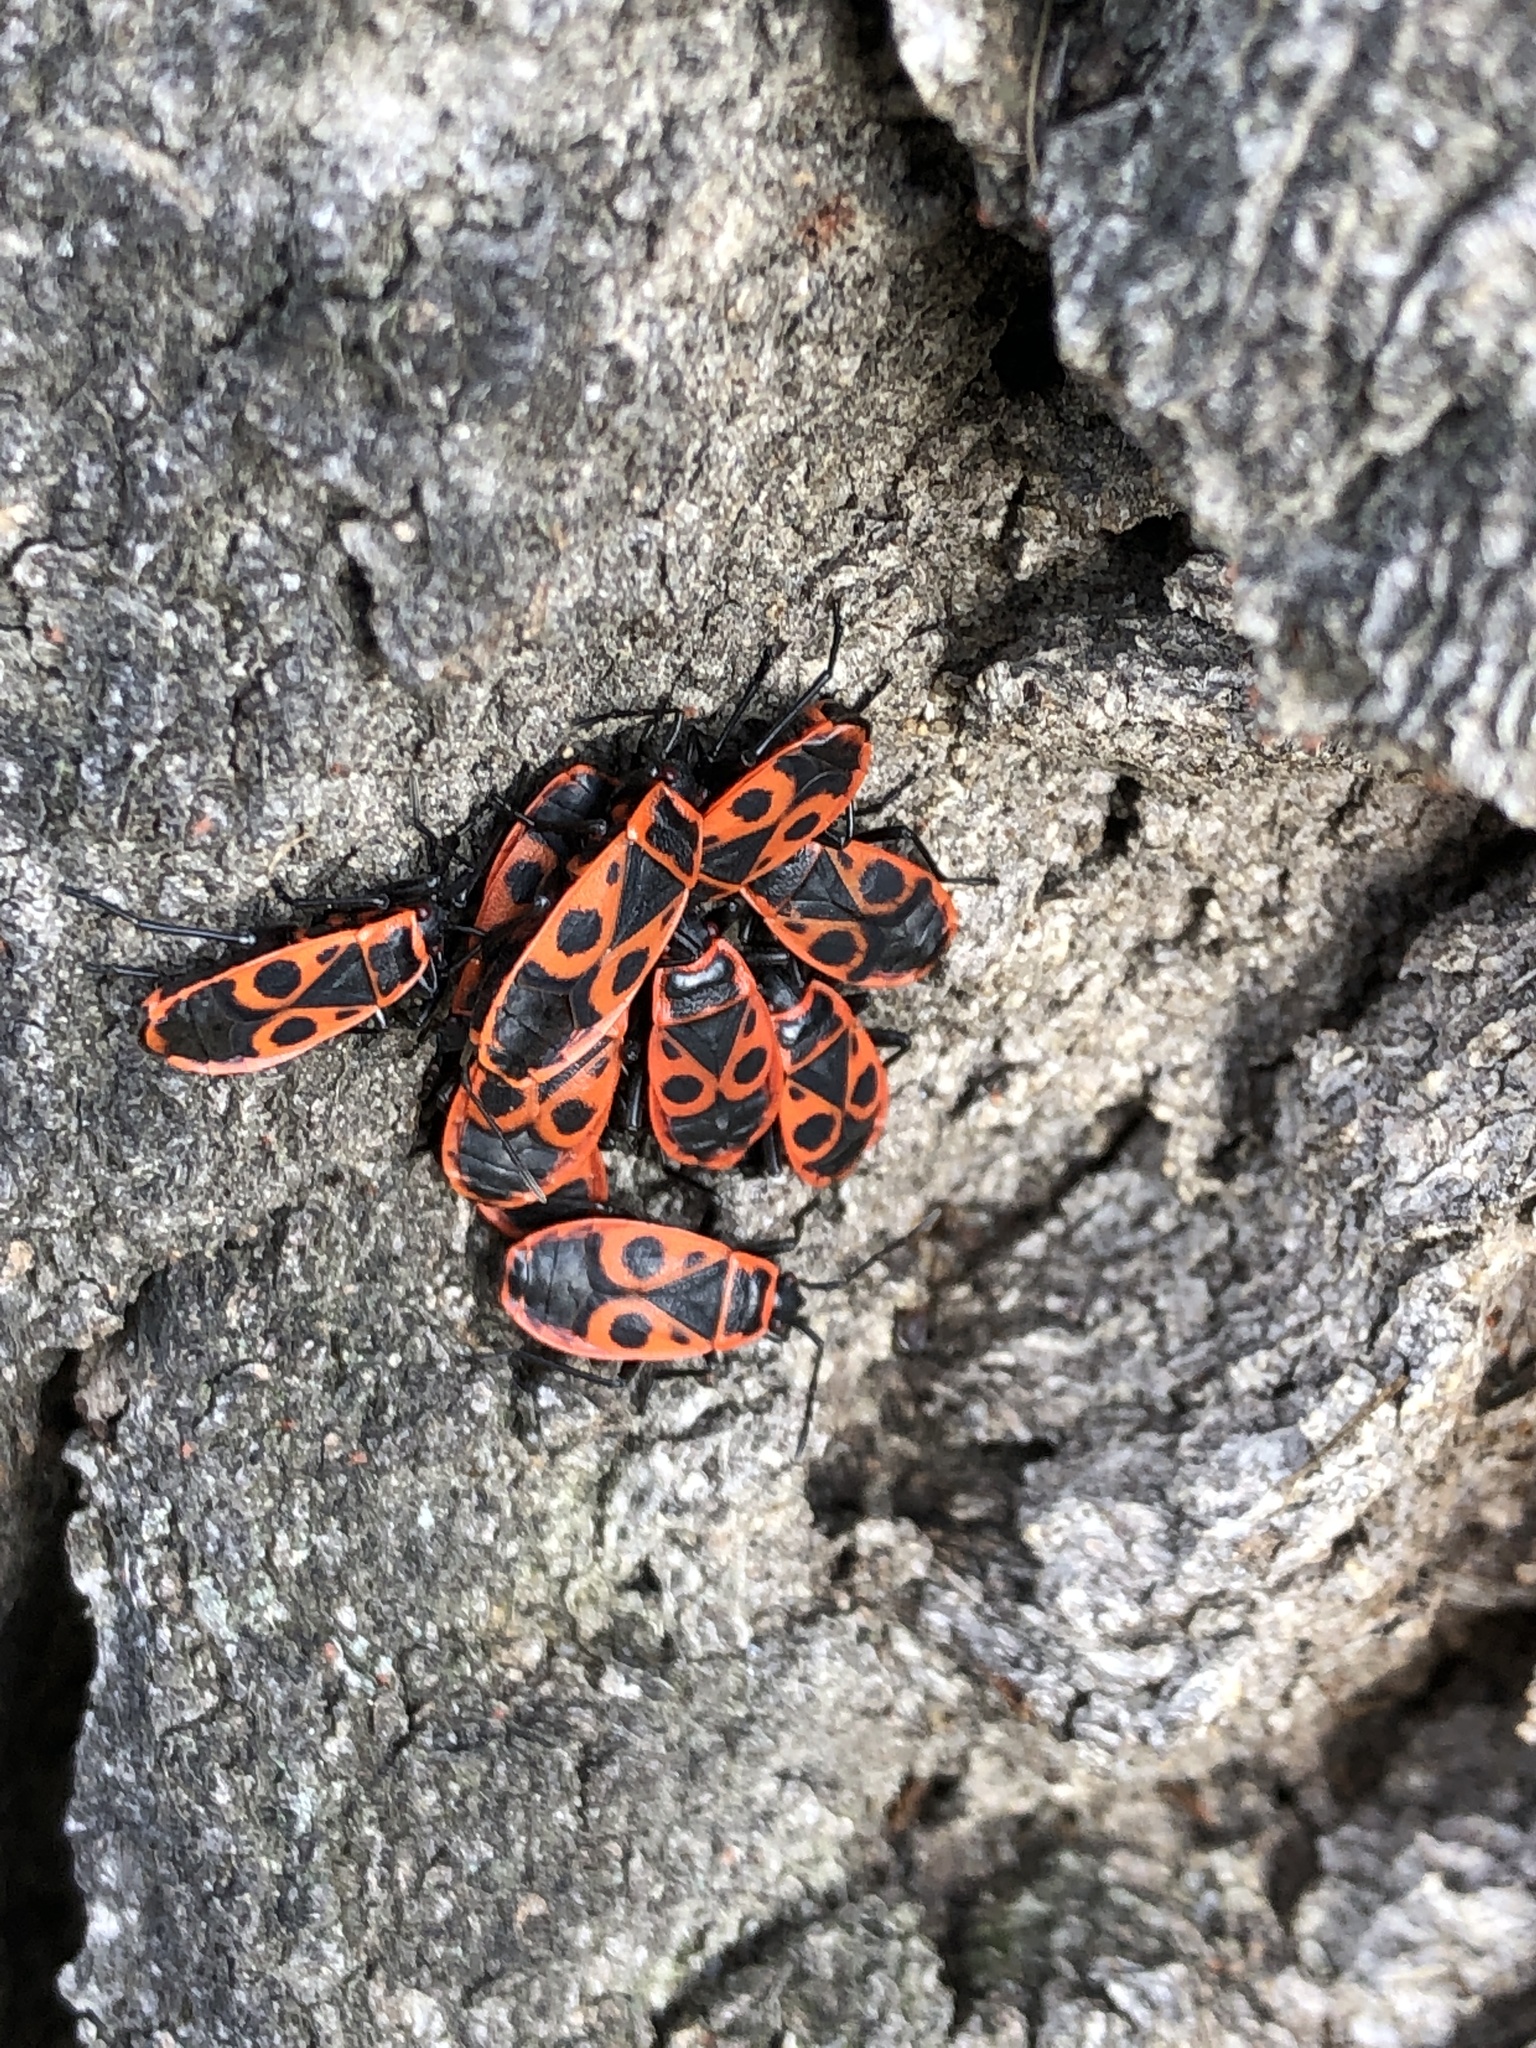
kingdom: Animalia
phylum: Arthropoda
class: Insecta
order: Hemiptera
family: Pyrrhocoridae
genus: Pyrrhocoris
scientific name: Pyrrhocoris apterus
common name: Firebug
